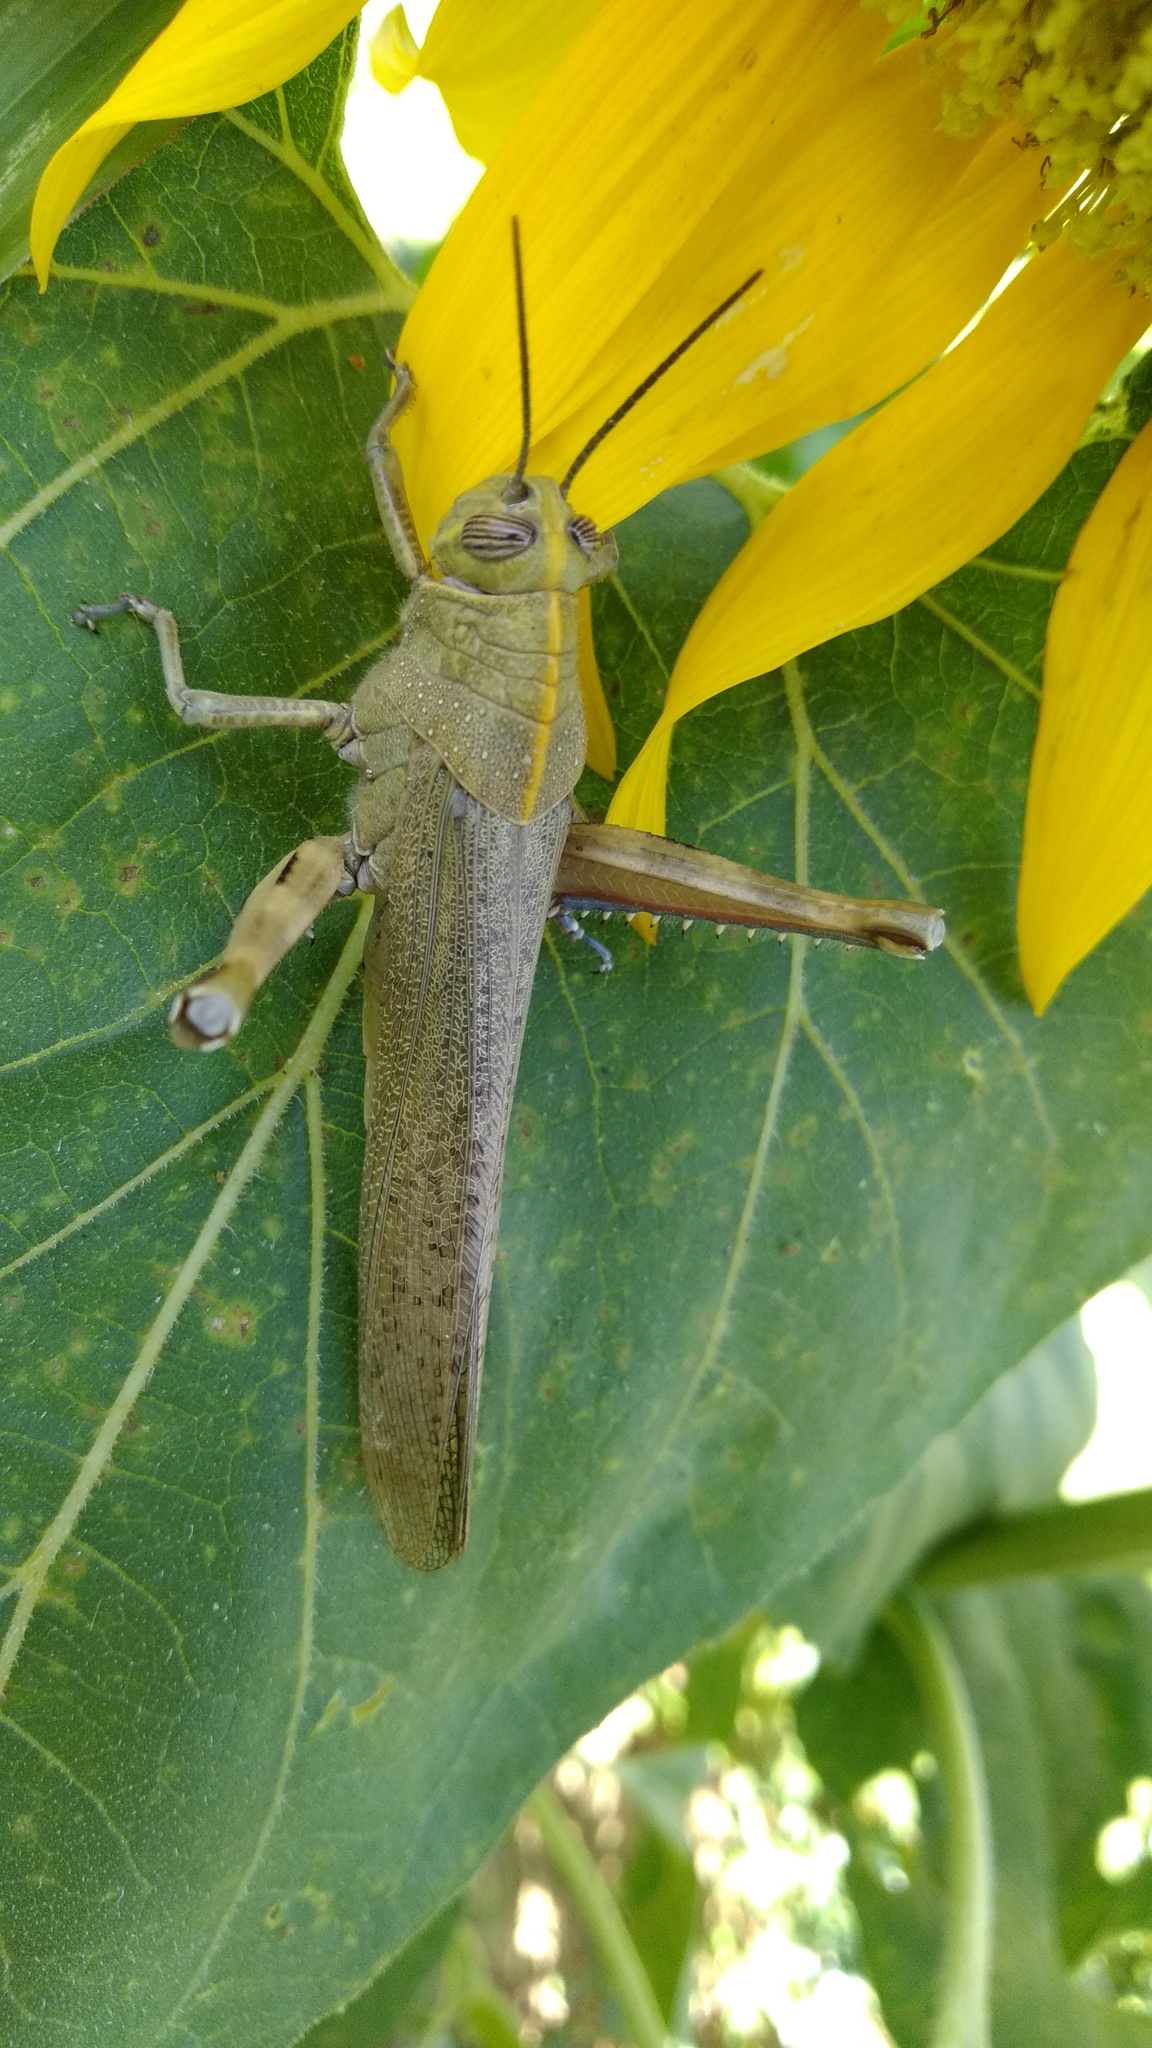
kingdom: Animalia
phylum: Arthropoda
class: Insecta
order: Orthoptera
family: Acrididae
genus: Anacridium
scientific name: Anacridium aegyptium
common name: Egyptian grasshopper
